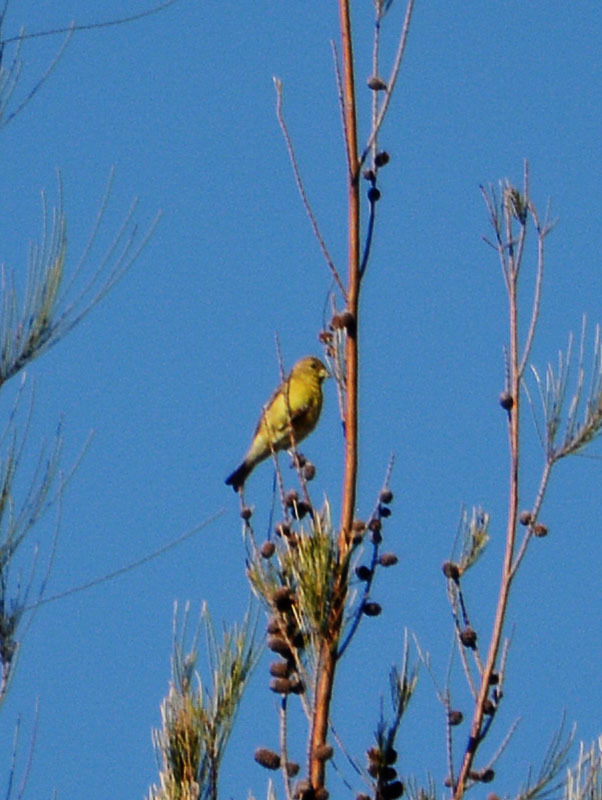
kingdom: Animalia
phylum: Chordata
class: Aves
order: Passeriformes
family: Fringillidae
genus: Spinus
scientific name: Spinus psaltria
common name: Lesser goldfinch
